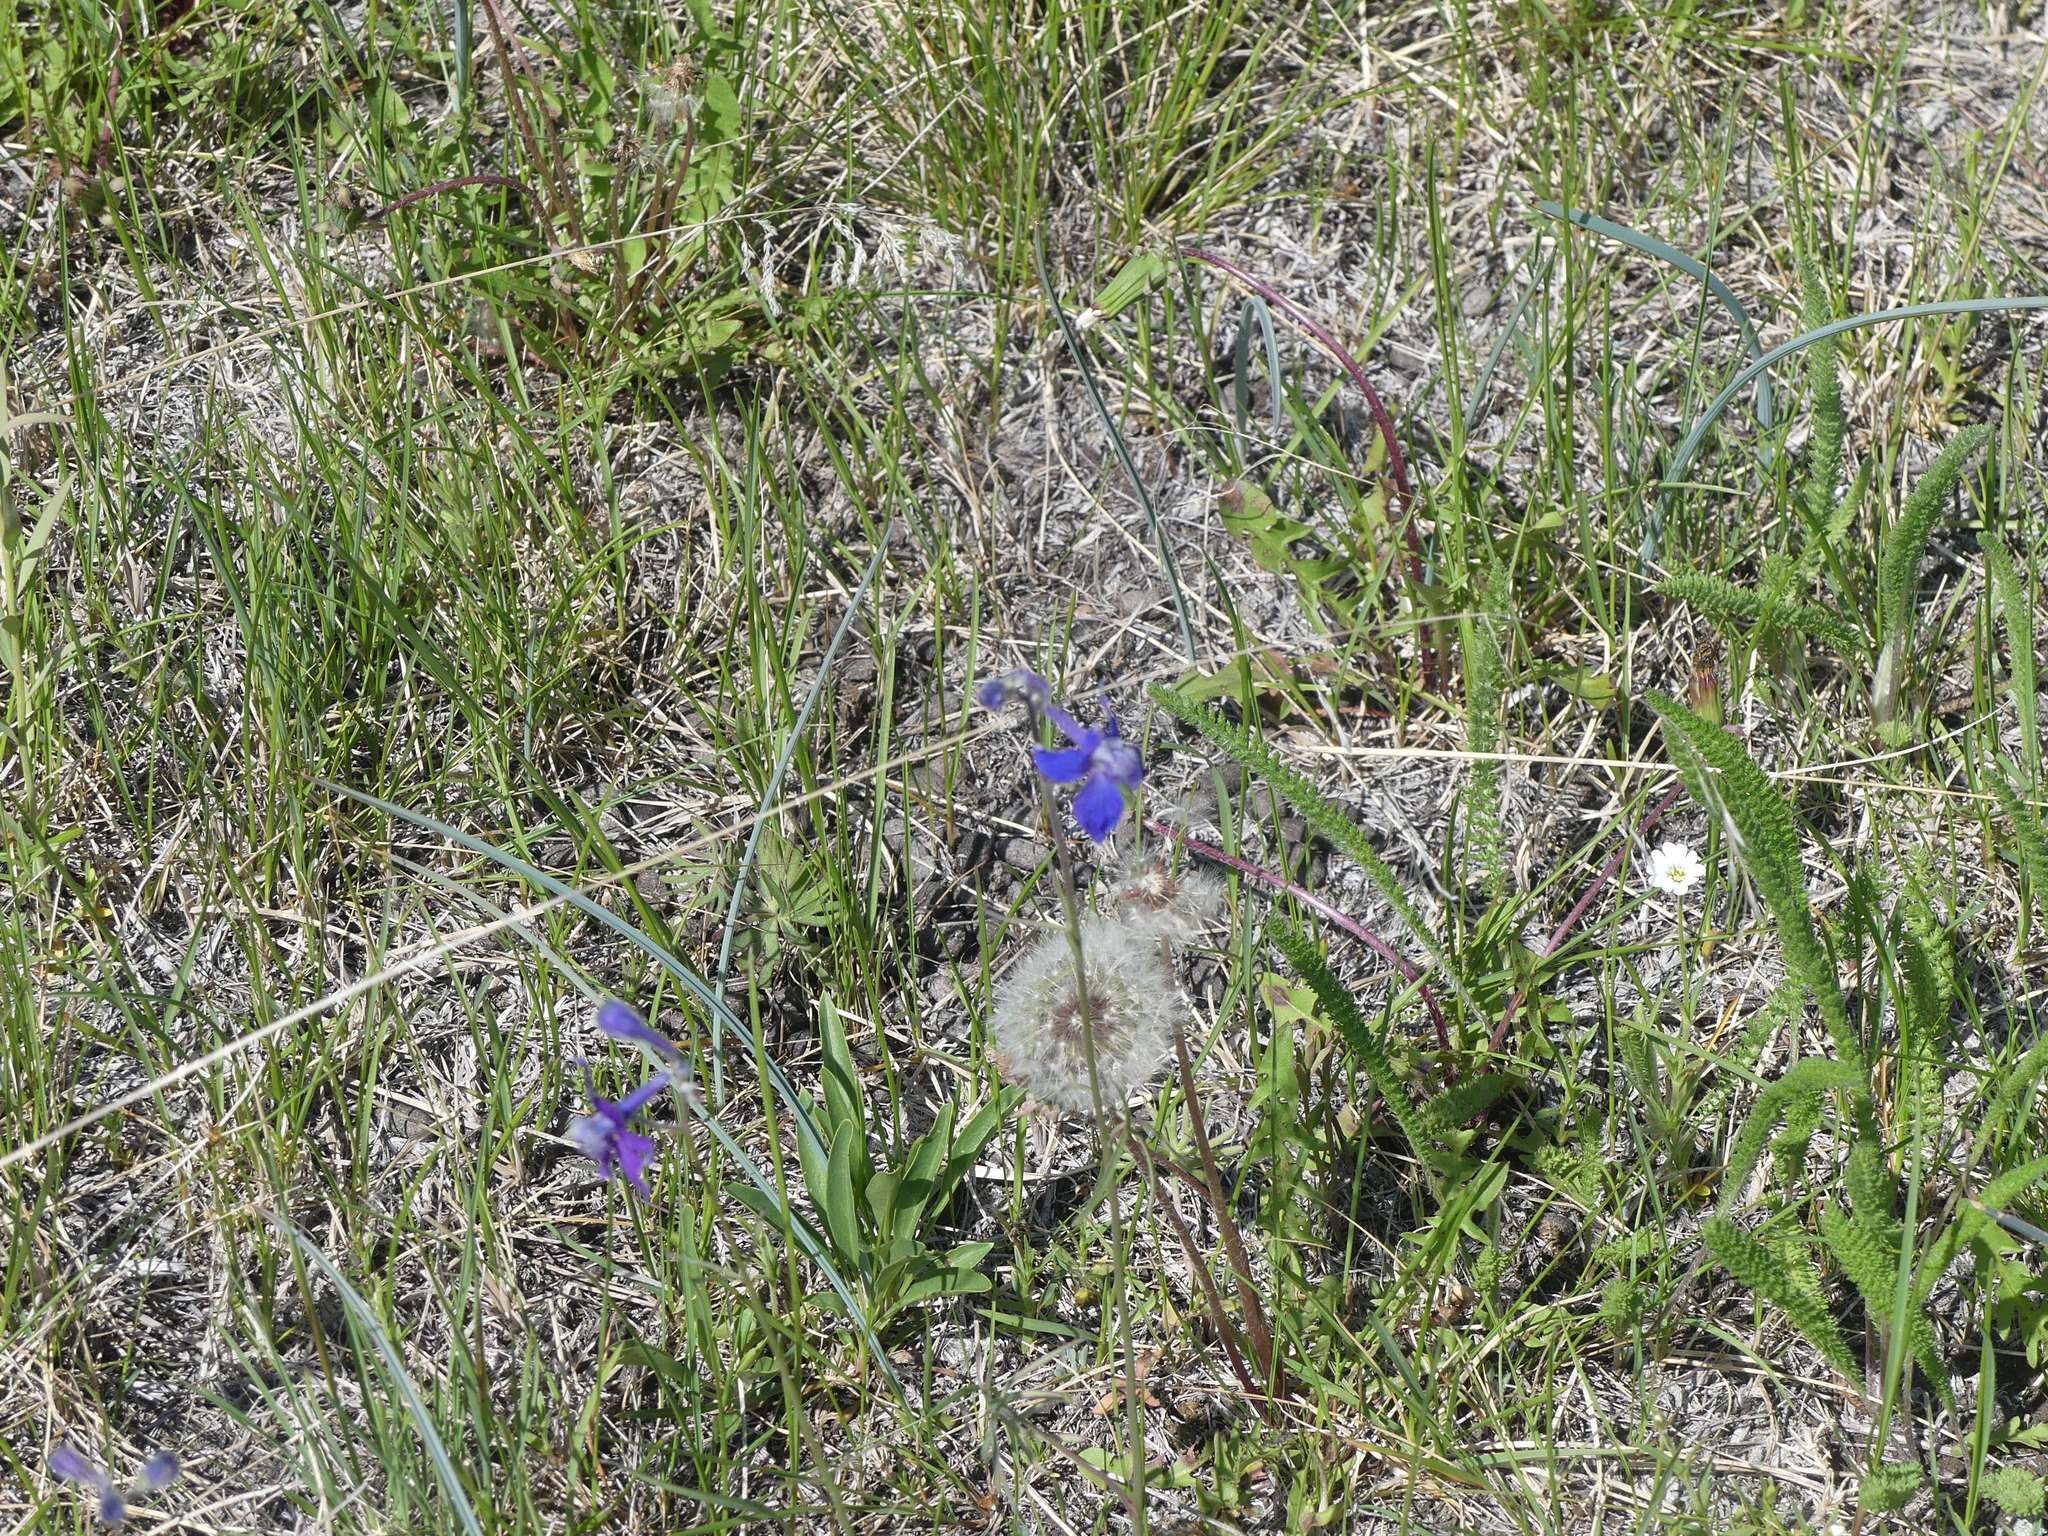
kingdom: Plantae
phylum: Tracheophyta
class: Magnoliopsida
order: Ranunculales
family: Ranunculaceae
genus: Delphinium
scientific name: Delphinium nuttallianum
